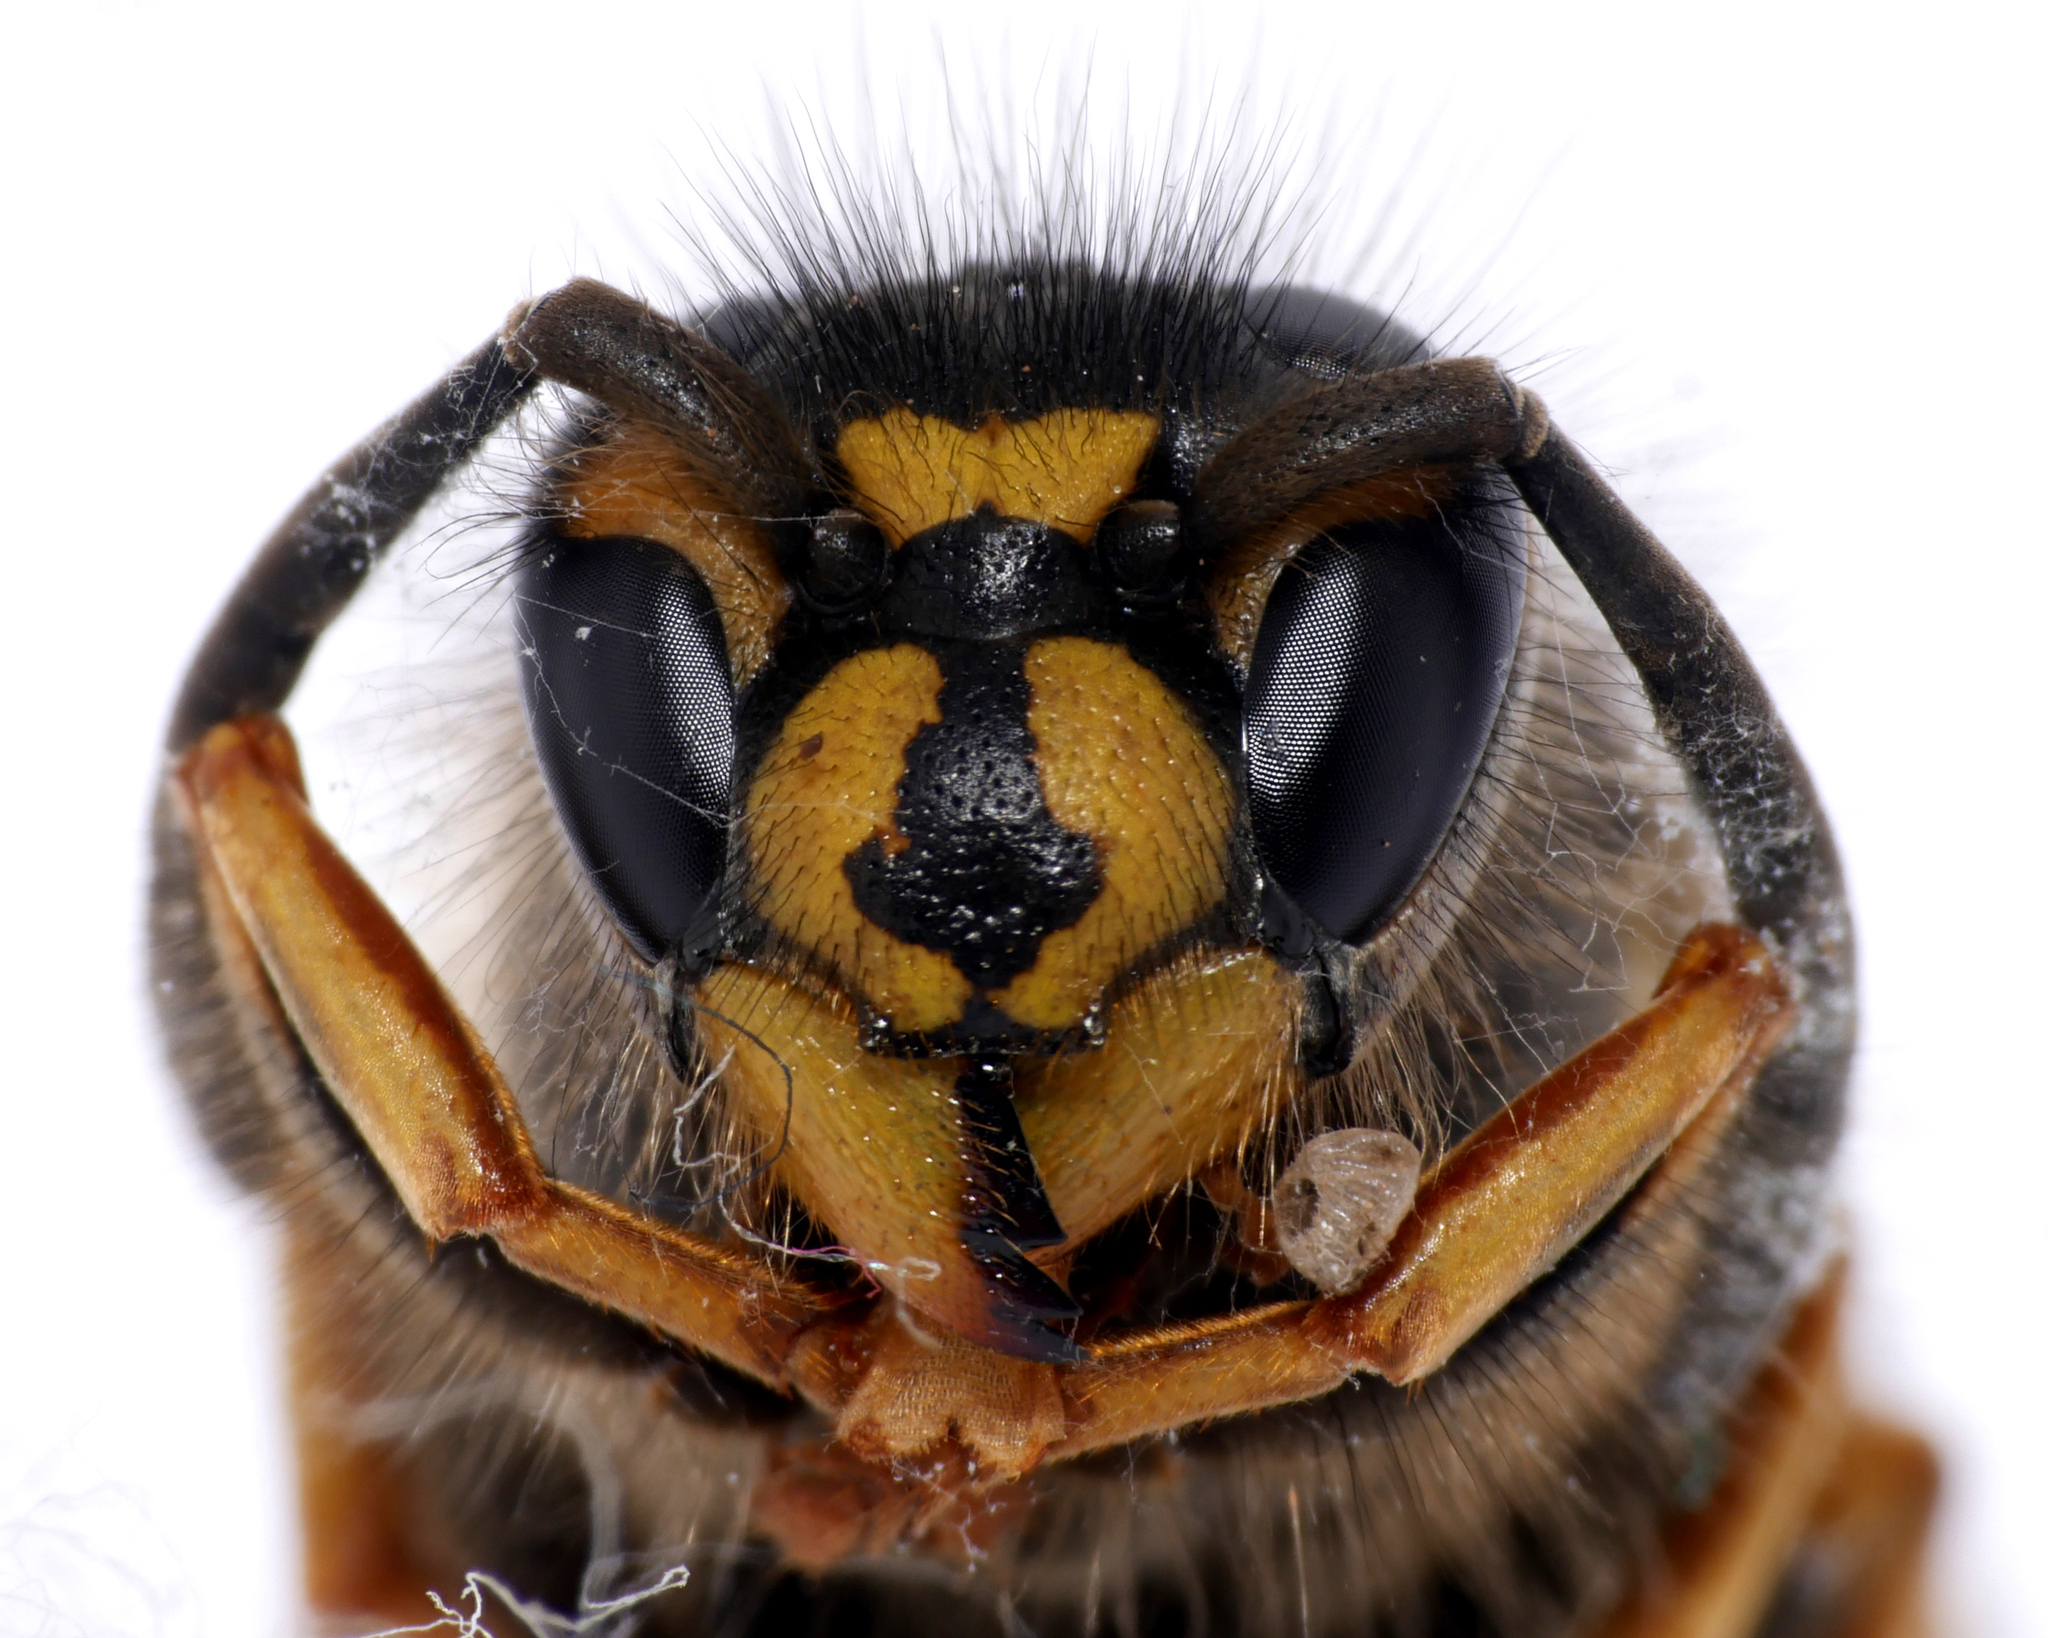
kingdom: Animalia
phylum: Arthropoda
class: Insecta
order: Hymenoptera
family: Vespidae
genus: Vespula
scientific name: Vespula vulgaris
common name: Common wasp
